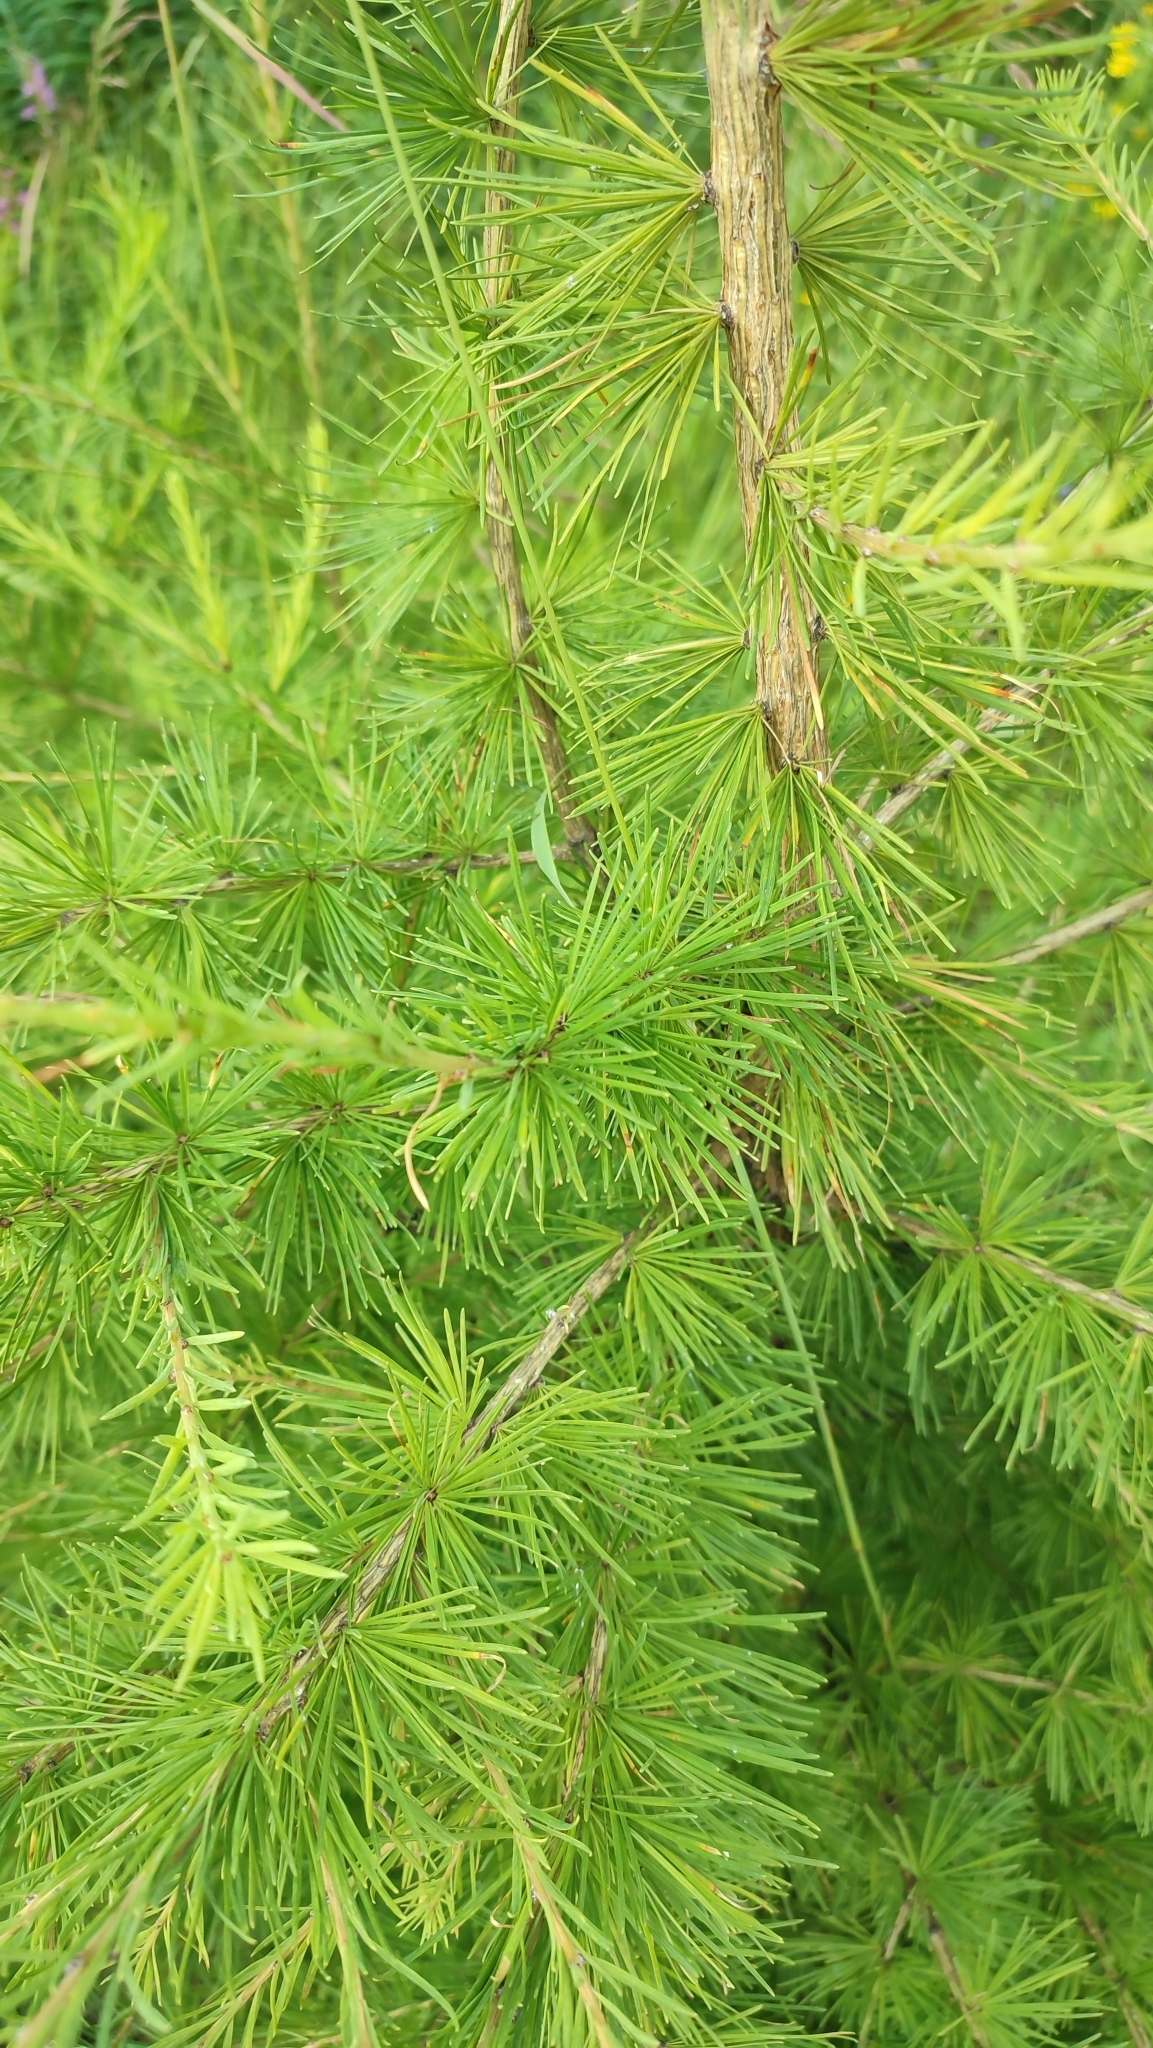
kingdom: Plantae
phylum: Tracheophyta
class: Pinopsida
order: Pinales
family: Pinaceae
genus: Larix
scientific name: Larix sibirica
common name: Siberian larch
